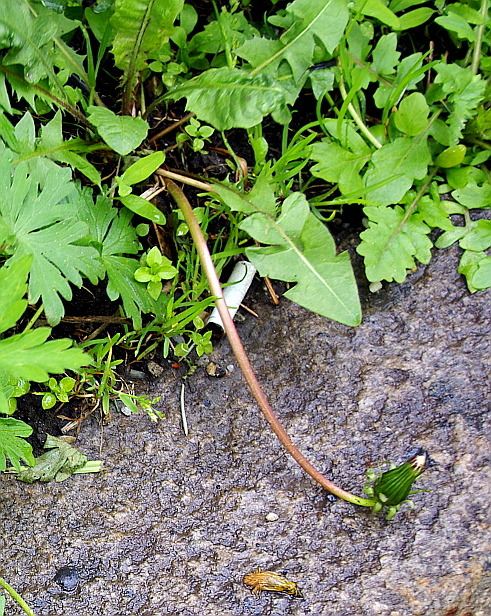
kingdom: Plantae
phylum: Tracheophyta
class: Magnoliopsida
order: Asterales
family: Asteraceae
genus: Taraxacum
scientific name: Taraxacum officinale
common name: Common dandelion
